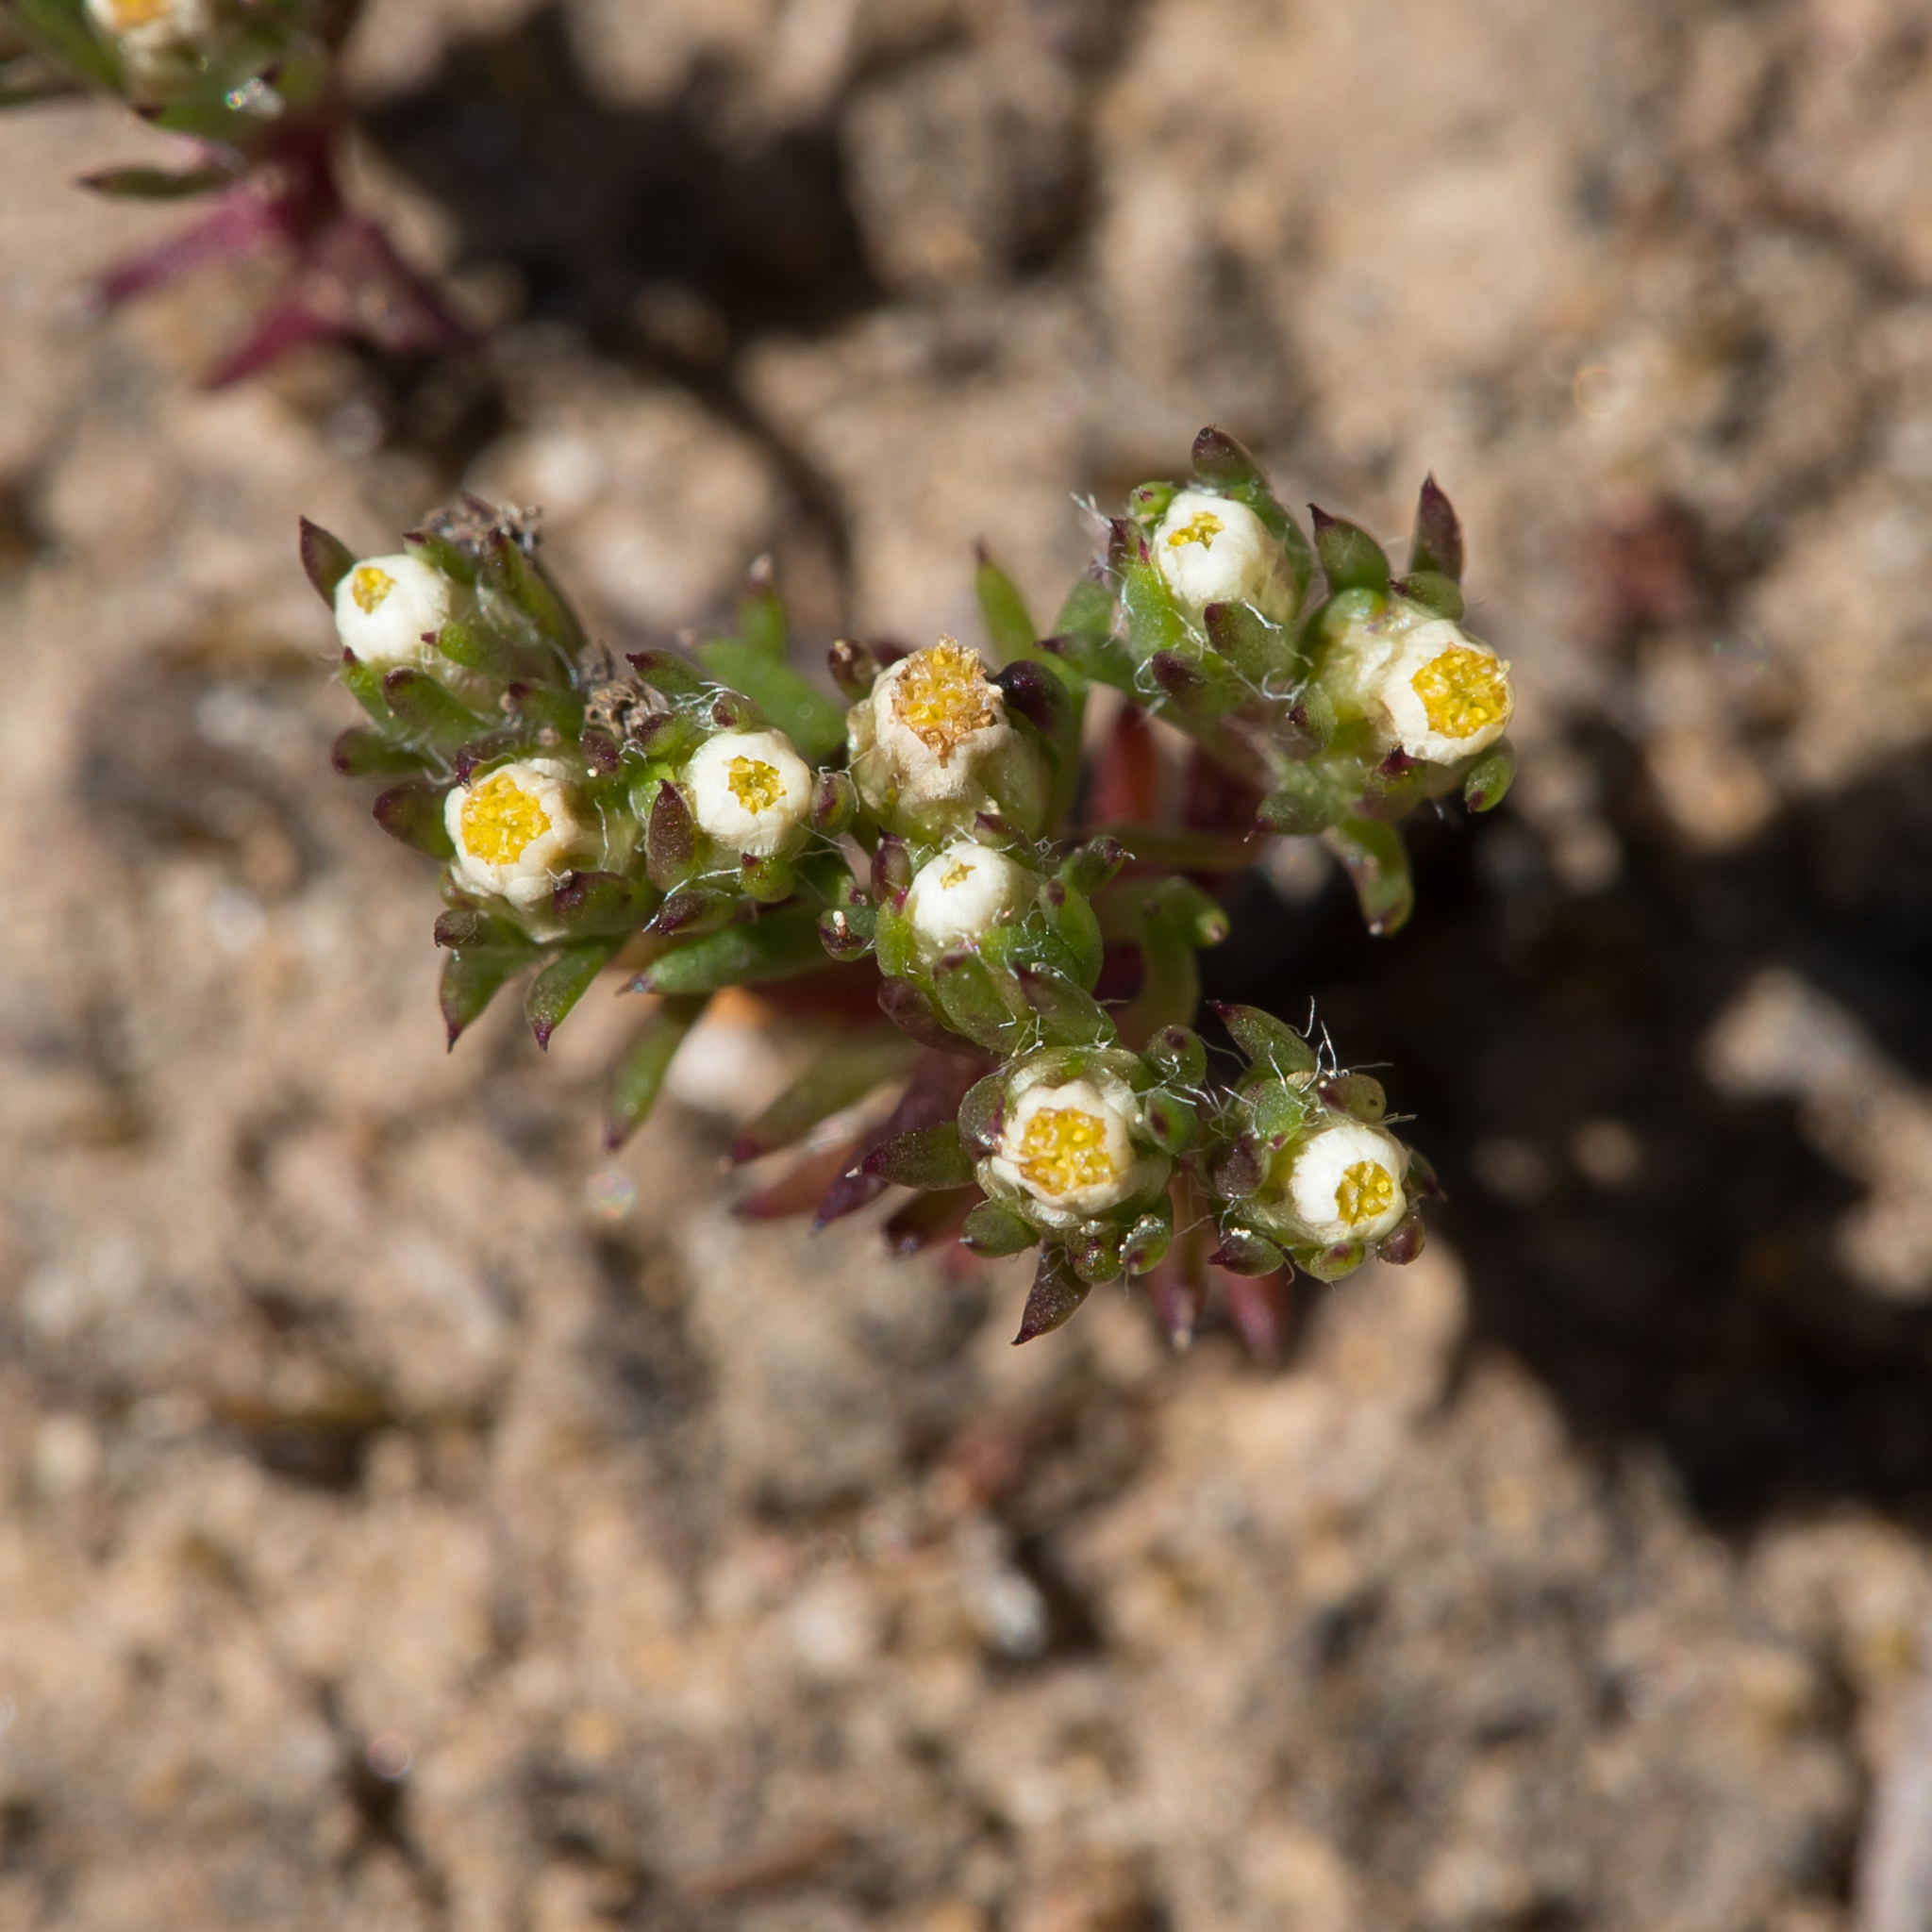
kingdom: Plantae
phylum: Tracheophyta
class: Magnoliopsida
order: Asterales
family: Asteraceae
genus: Hyalosperma
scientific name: Hyalosperma demissum
